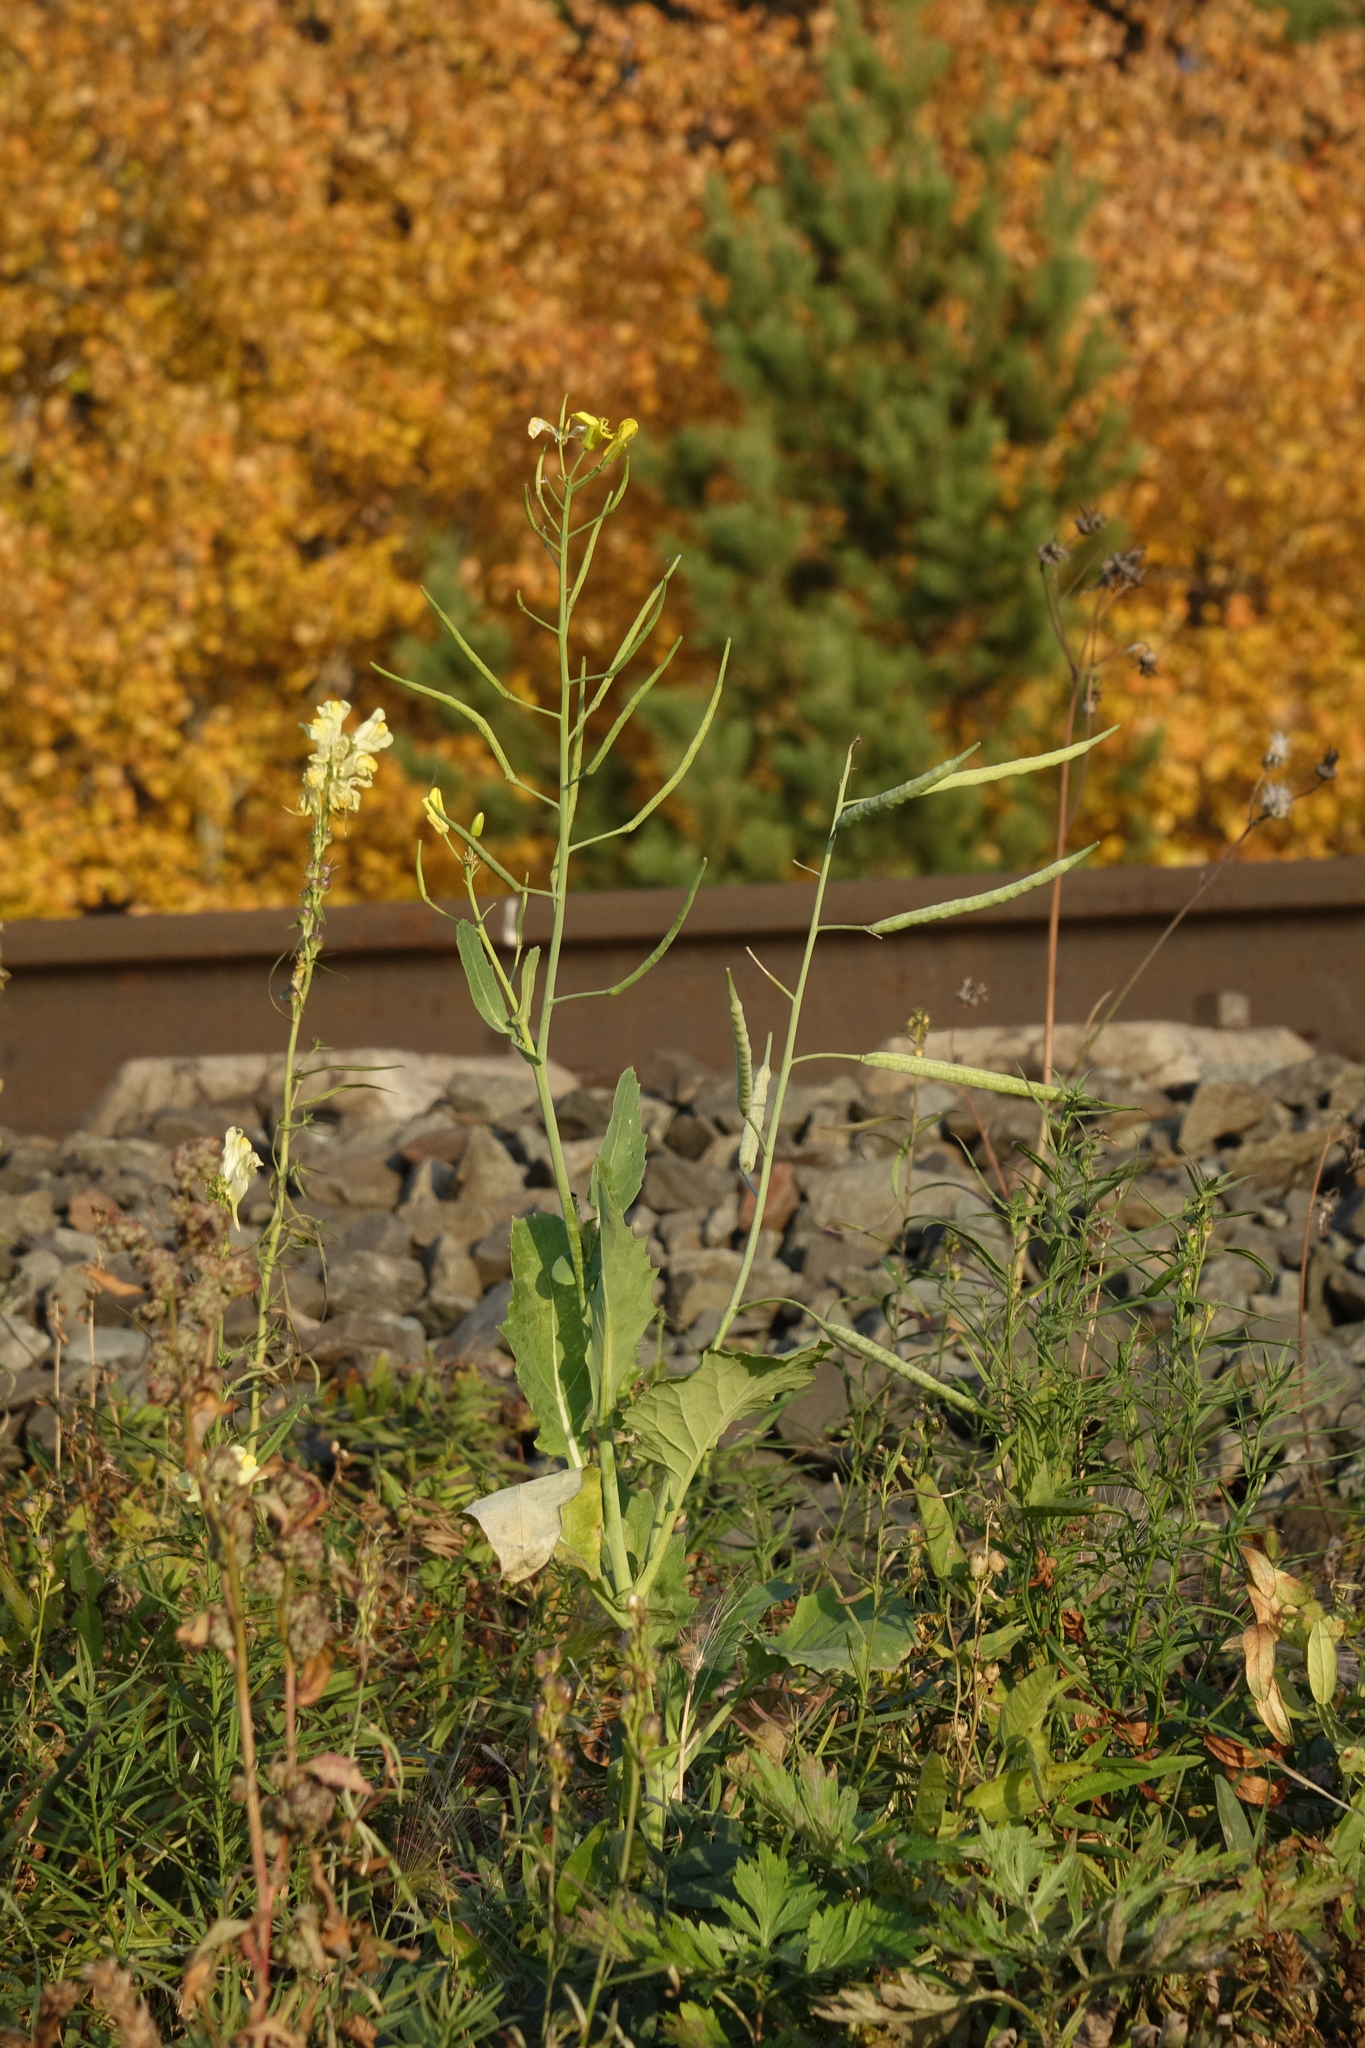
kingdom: Plantae
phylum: Tracheophyta
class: Magnoliopsida
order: Brassicales
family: Brassicaceae
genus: Brassica
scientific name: Brassica napus
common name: Rape
